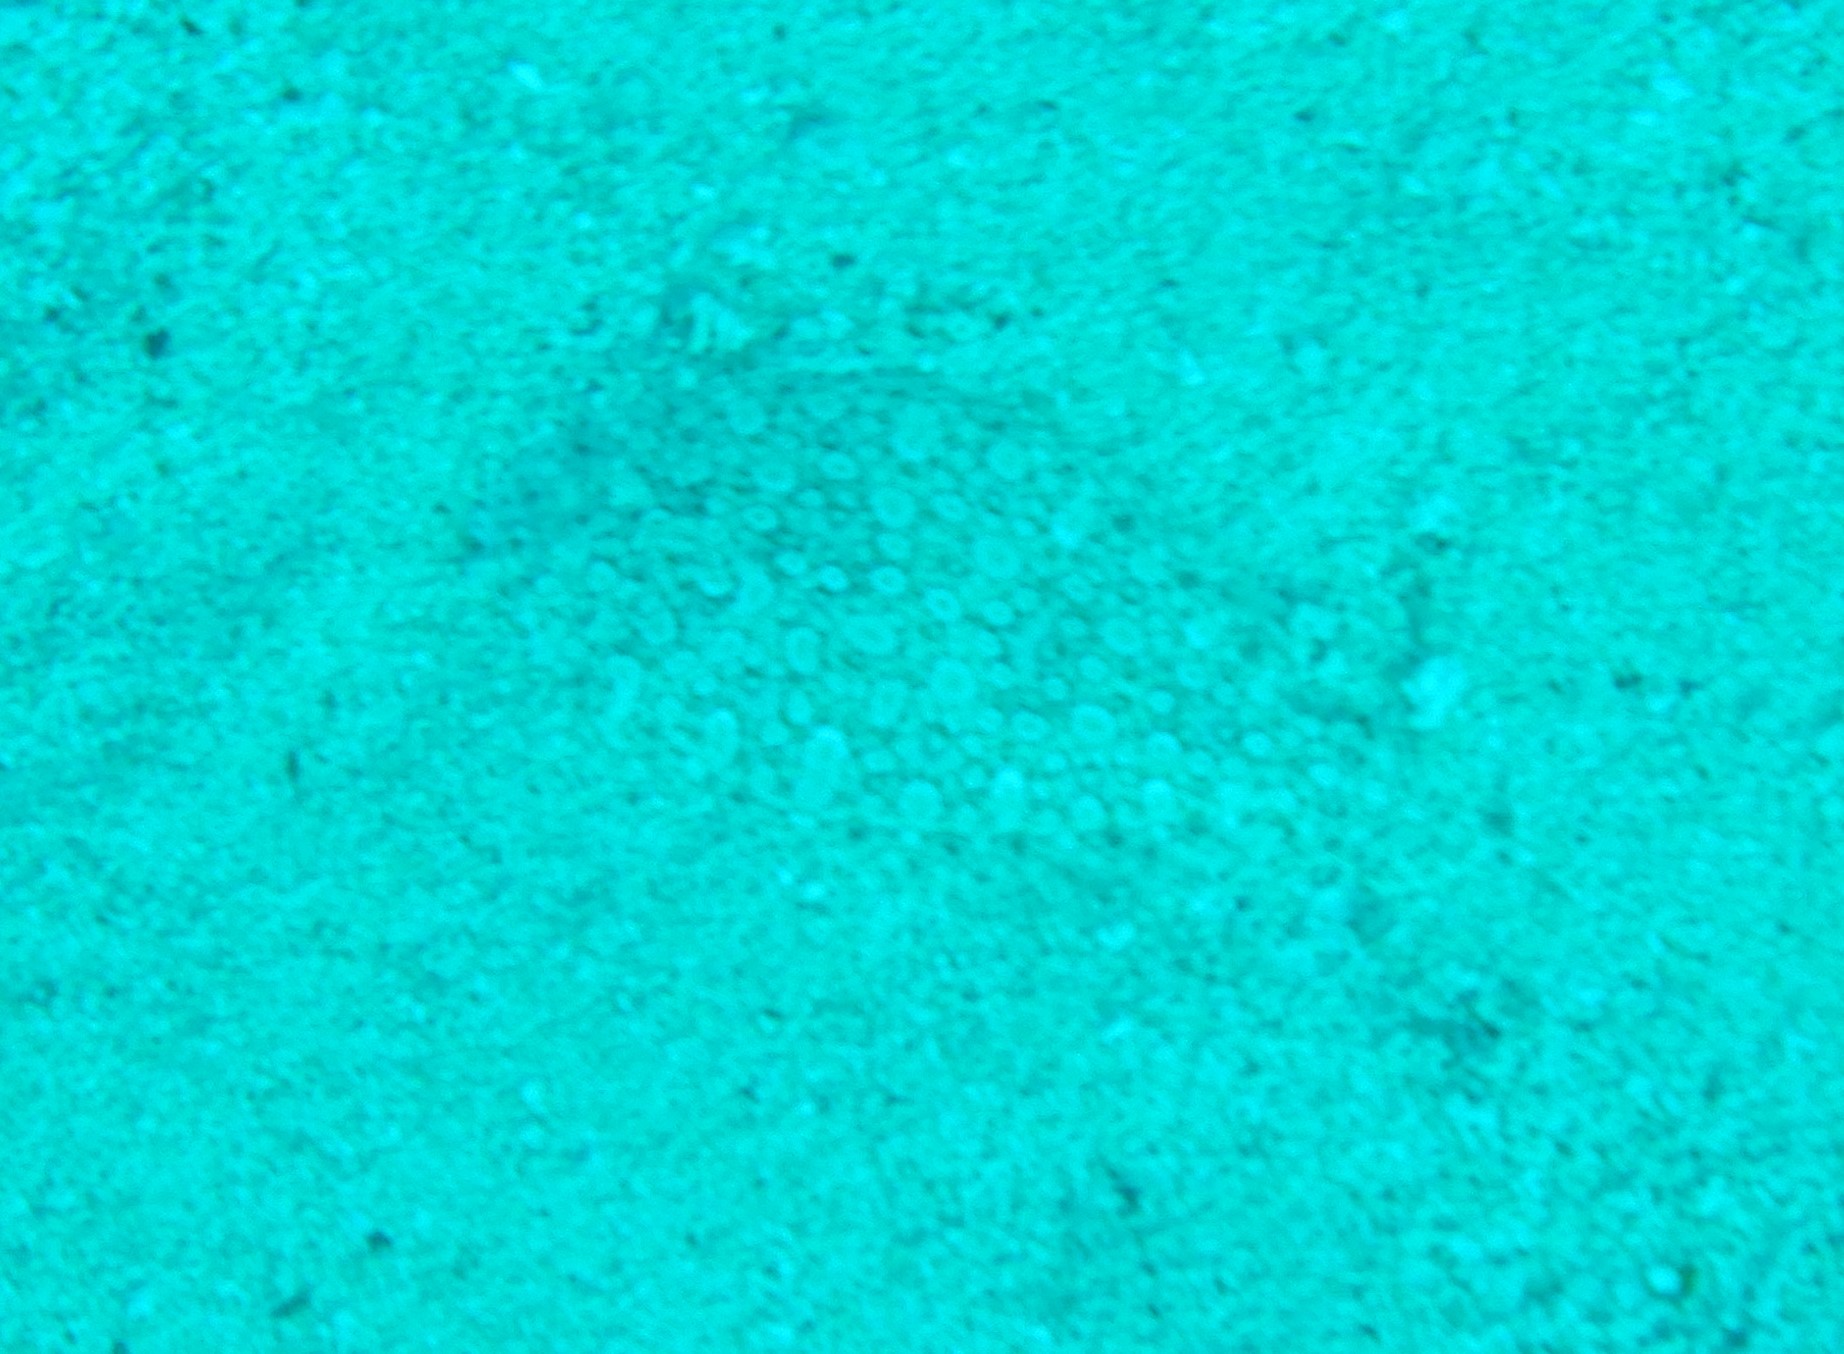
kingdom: Animalia
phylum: Chordata
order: Pleuronectiformes
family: Bothidae
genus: Bothus
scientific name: Bothus podas
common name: Wide-eyed flounder
